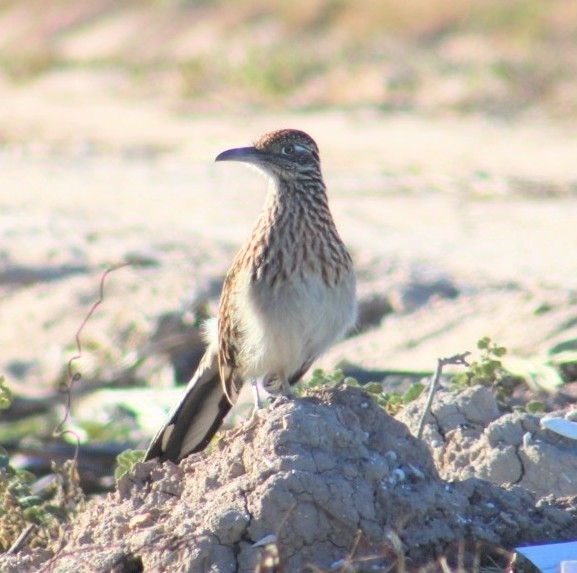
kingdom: Animalia
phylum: Chordata
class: Aves
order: Cuculiformes
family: Cuculidae
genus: Geococcyx
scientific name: Geococcyx californianus
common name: Greater roadrunner
